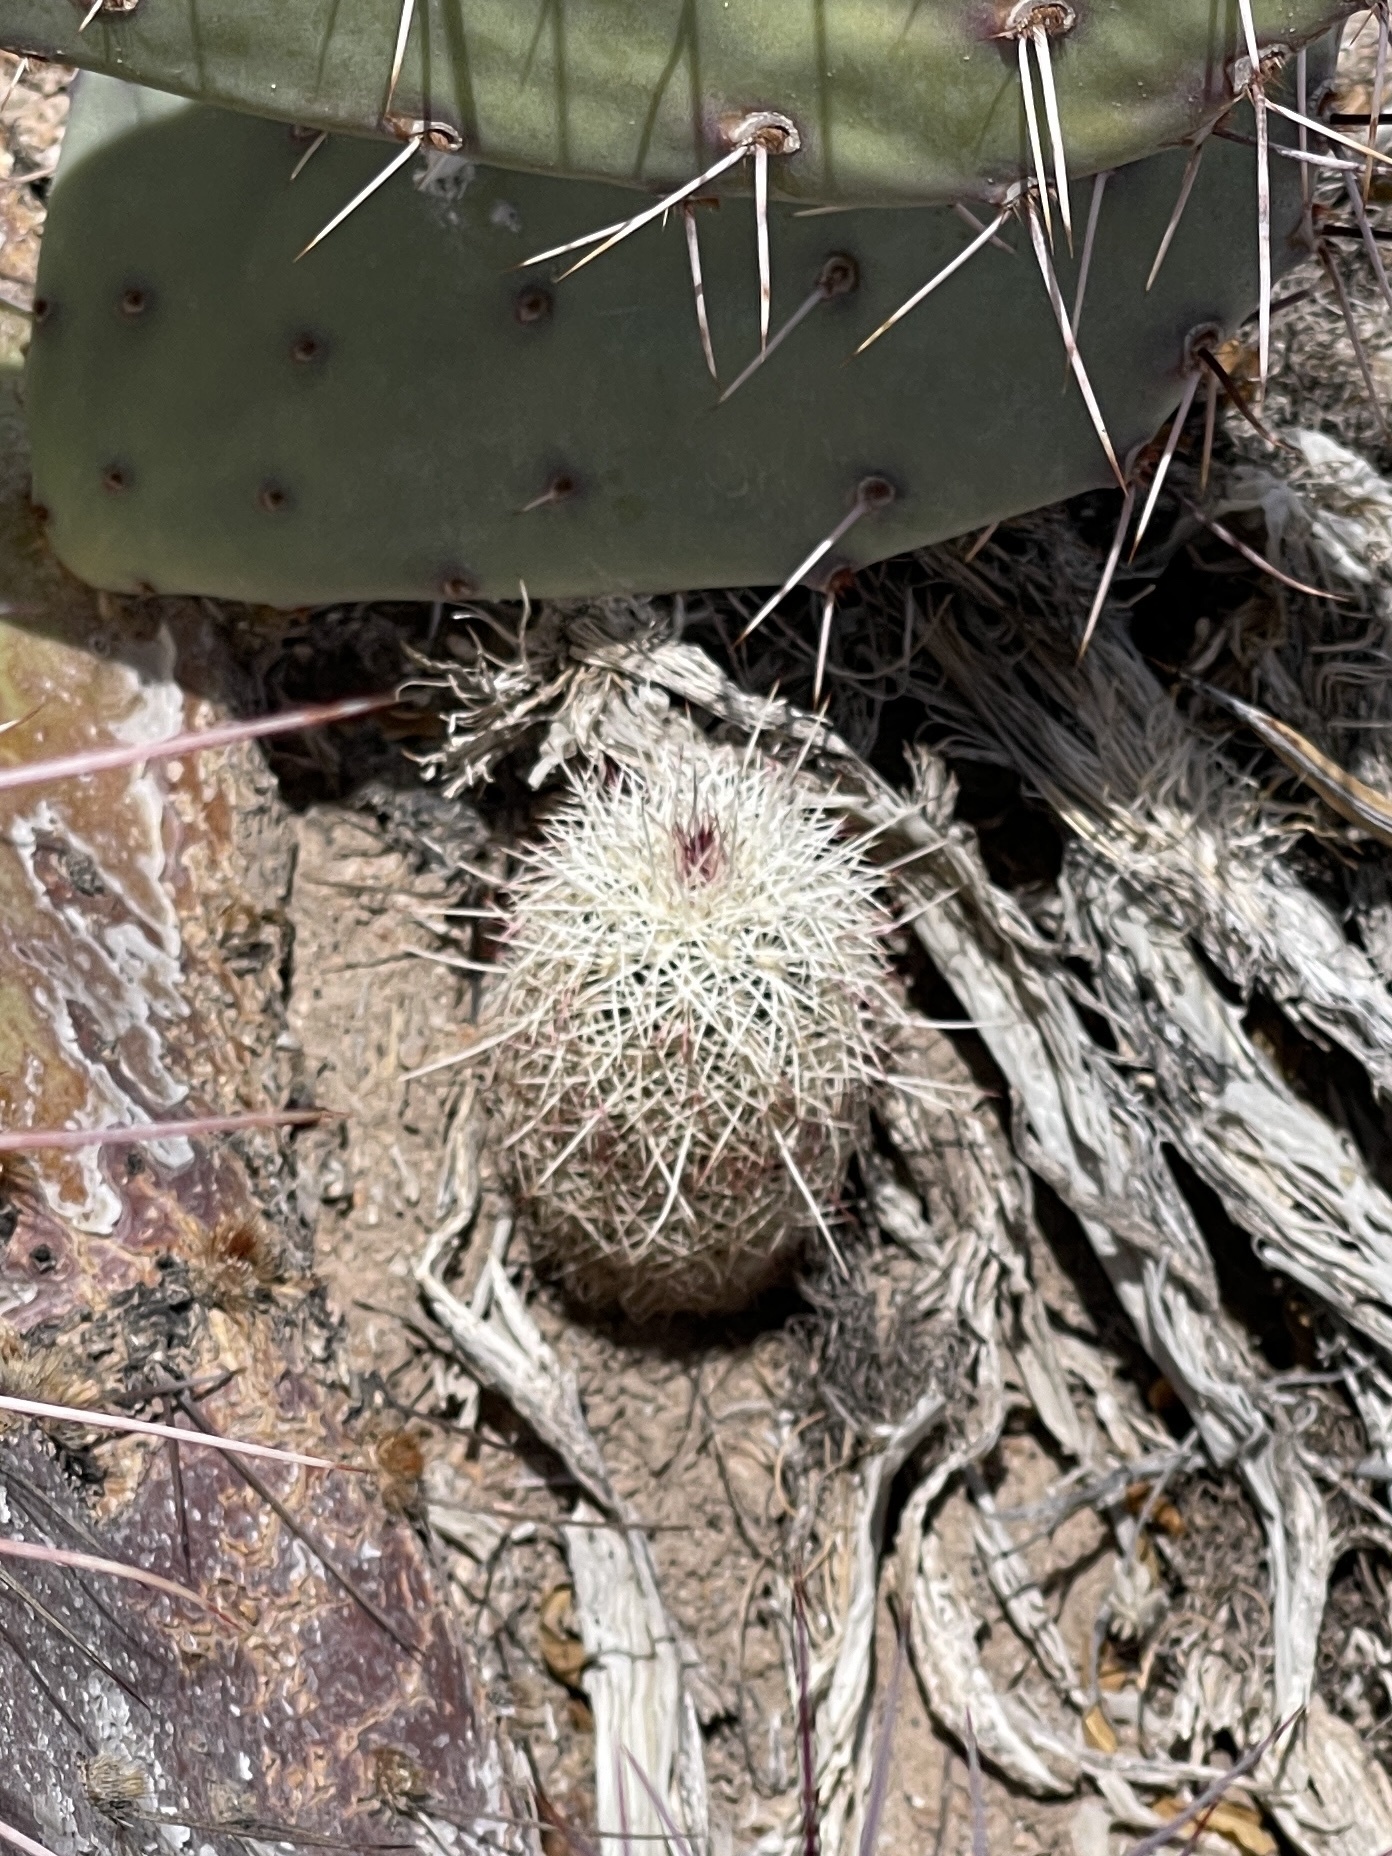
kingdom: Plantae
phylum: Tracheophyta
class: Magnoliopsida
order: Caryophyllales
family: Cactaceae
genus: Echinocereus
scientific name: Echinocereus viridiflorus
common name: Nylon hedgehog cactus
